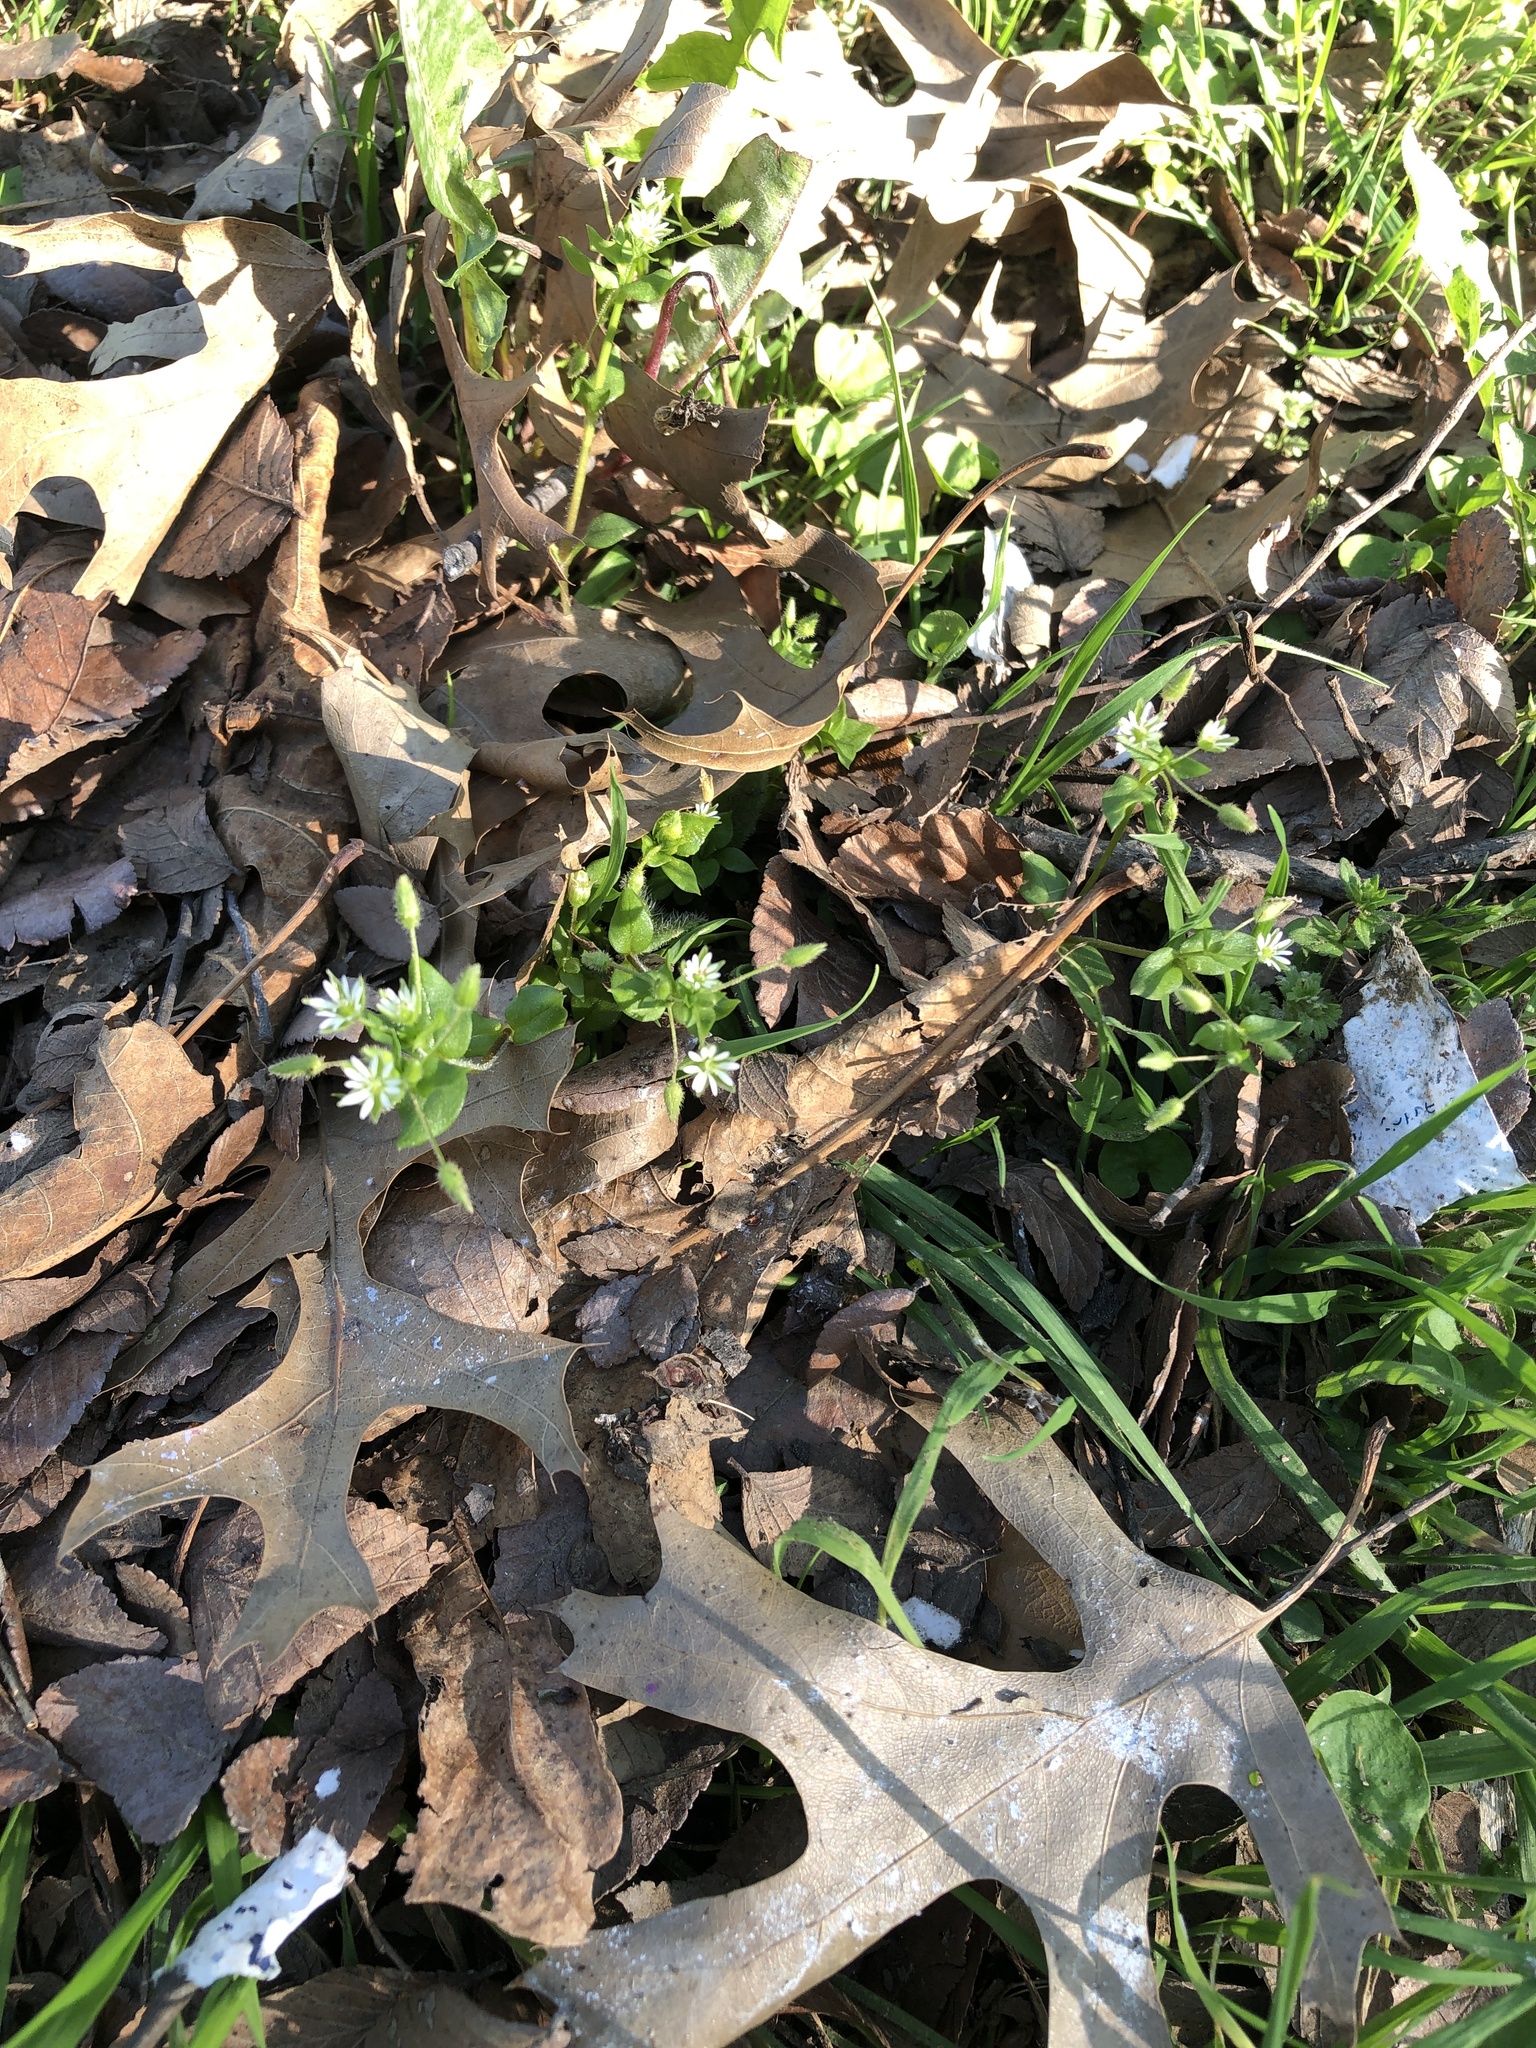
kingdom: Plantae
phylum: Tracheophyta
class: Magnoliopsida
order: Caryophyllales
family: Caryophyllaceae
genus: Stellaria
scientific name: Stellaria media
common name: Common chickweed
